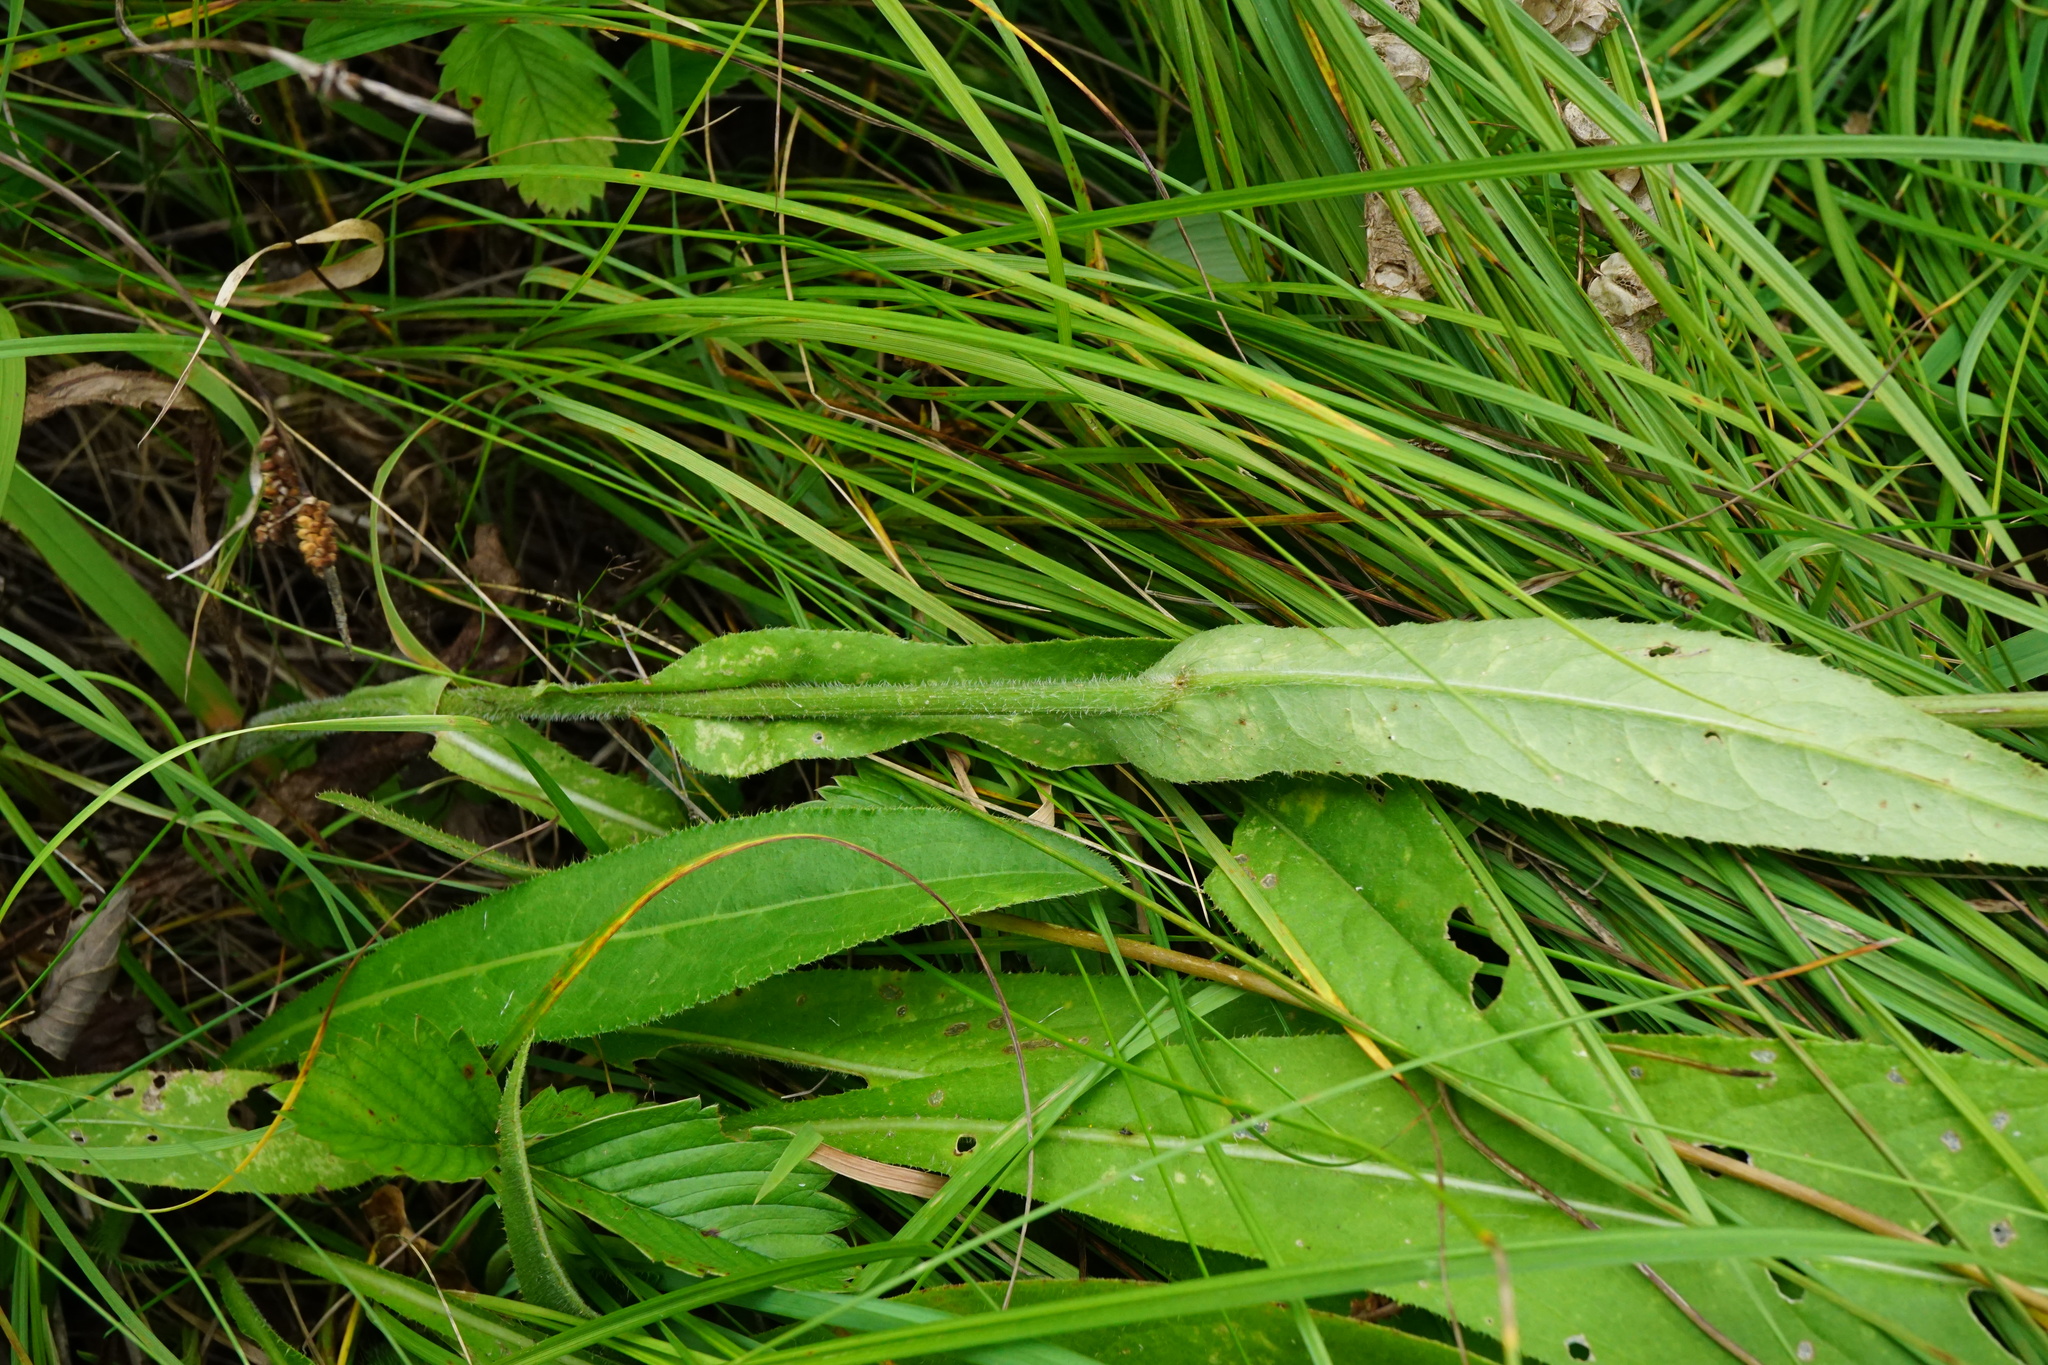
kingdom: Plantae
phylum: Tracheophyta
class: Magnoliopsida
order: Asterales
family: Asteraceae
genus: Cirsium
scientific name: Cirsium pannonicum
